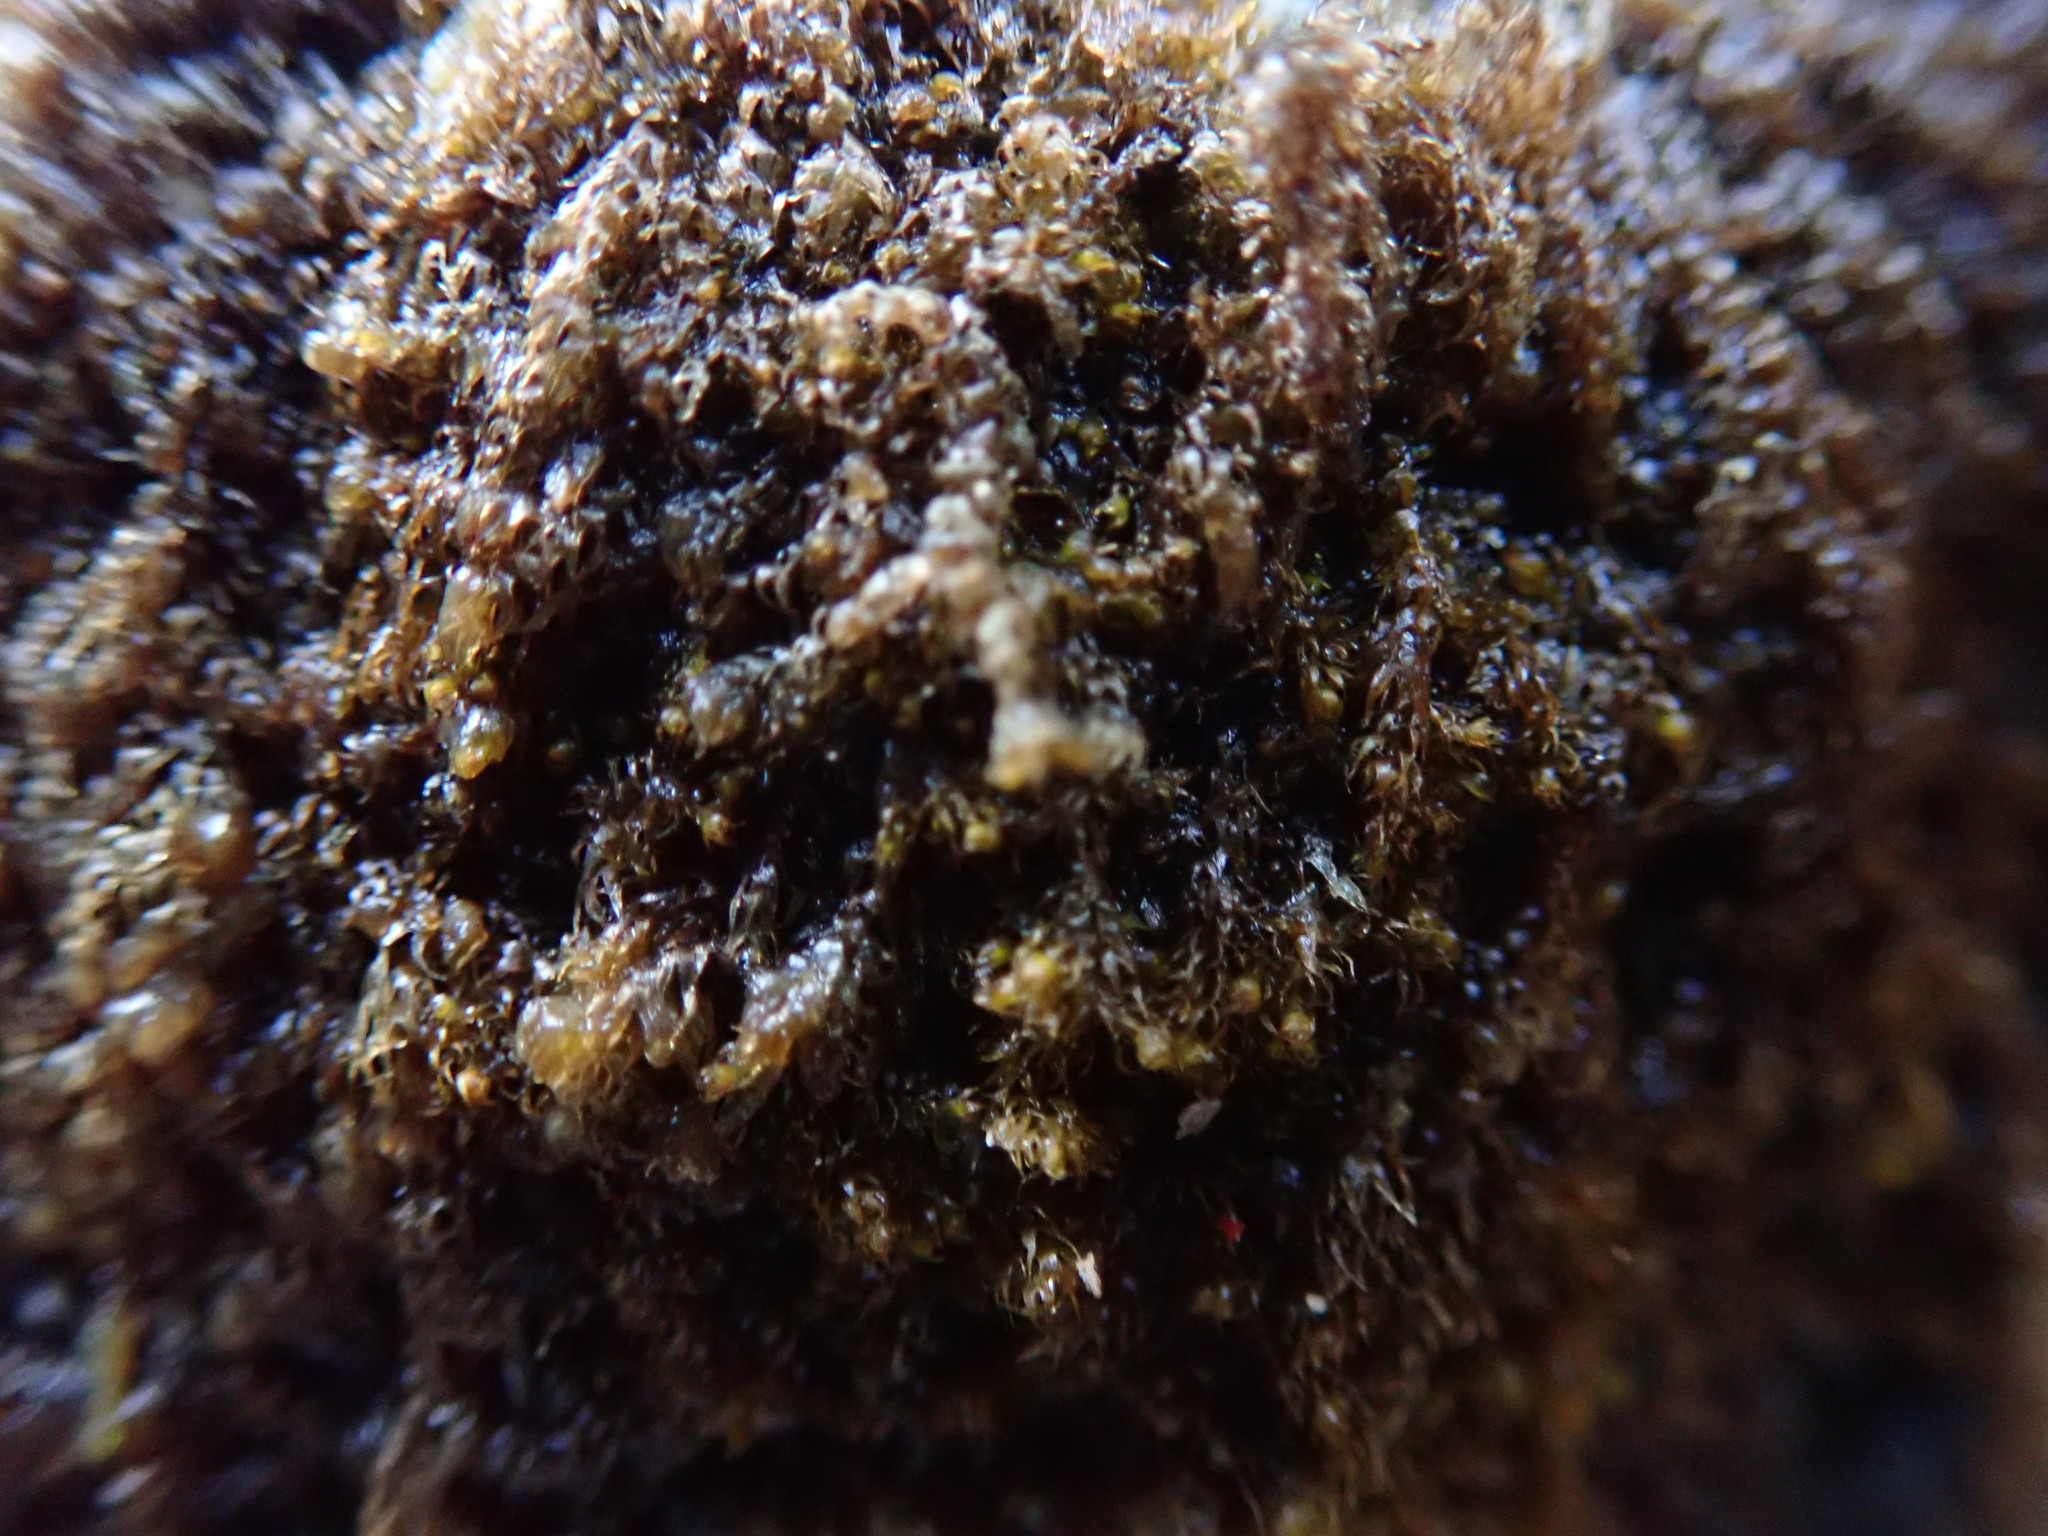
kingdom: Plantae
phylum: Marchantiophyta
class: Jungermanniopsida
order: Ptilidiales
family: Ptilidiaceae
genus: Ptilidium
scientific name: Ptilidium californicum
